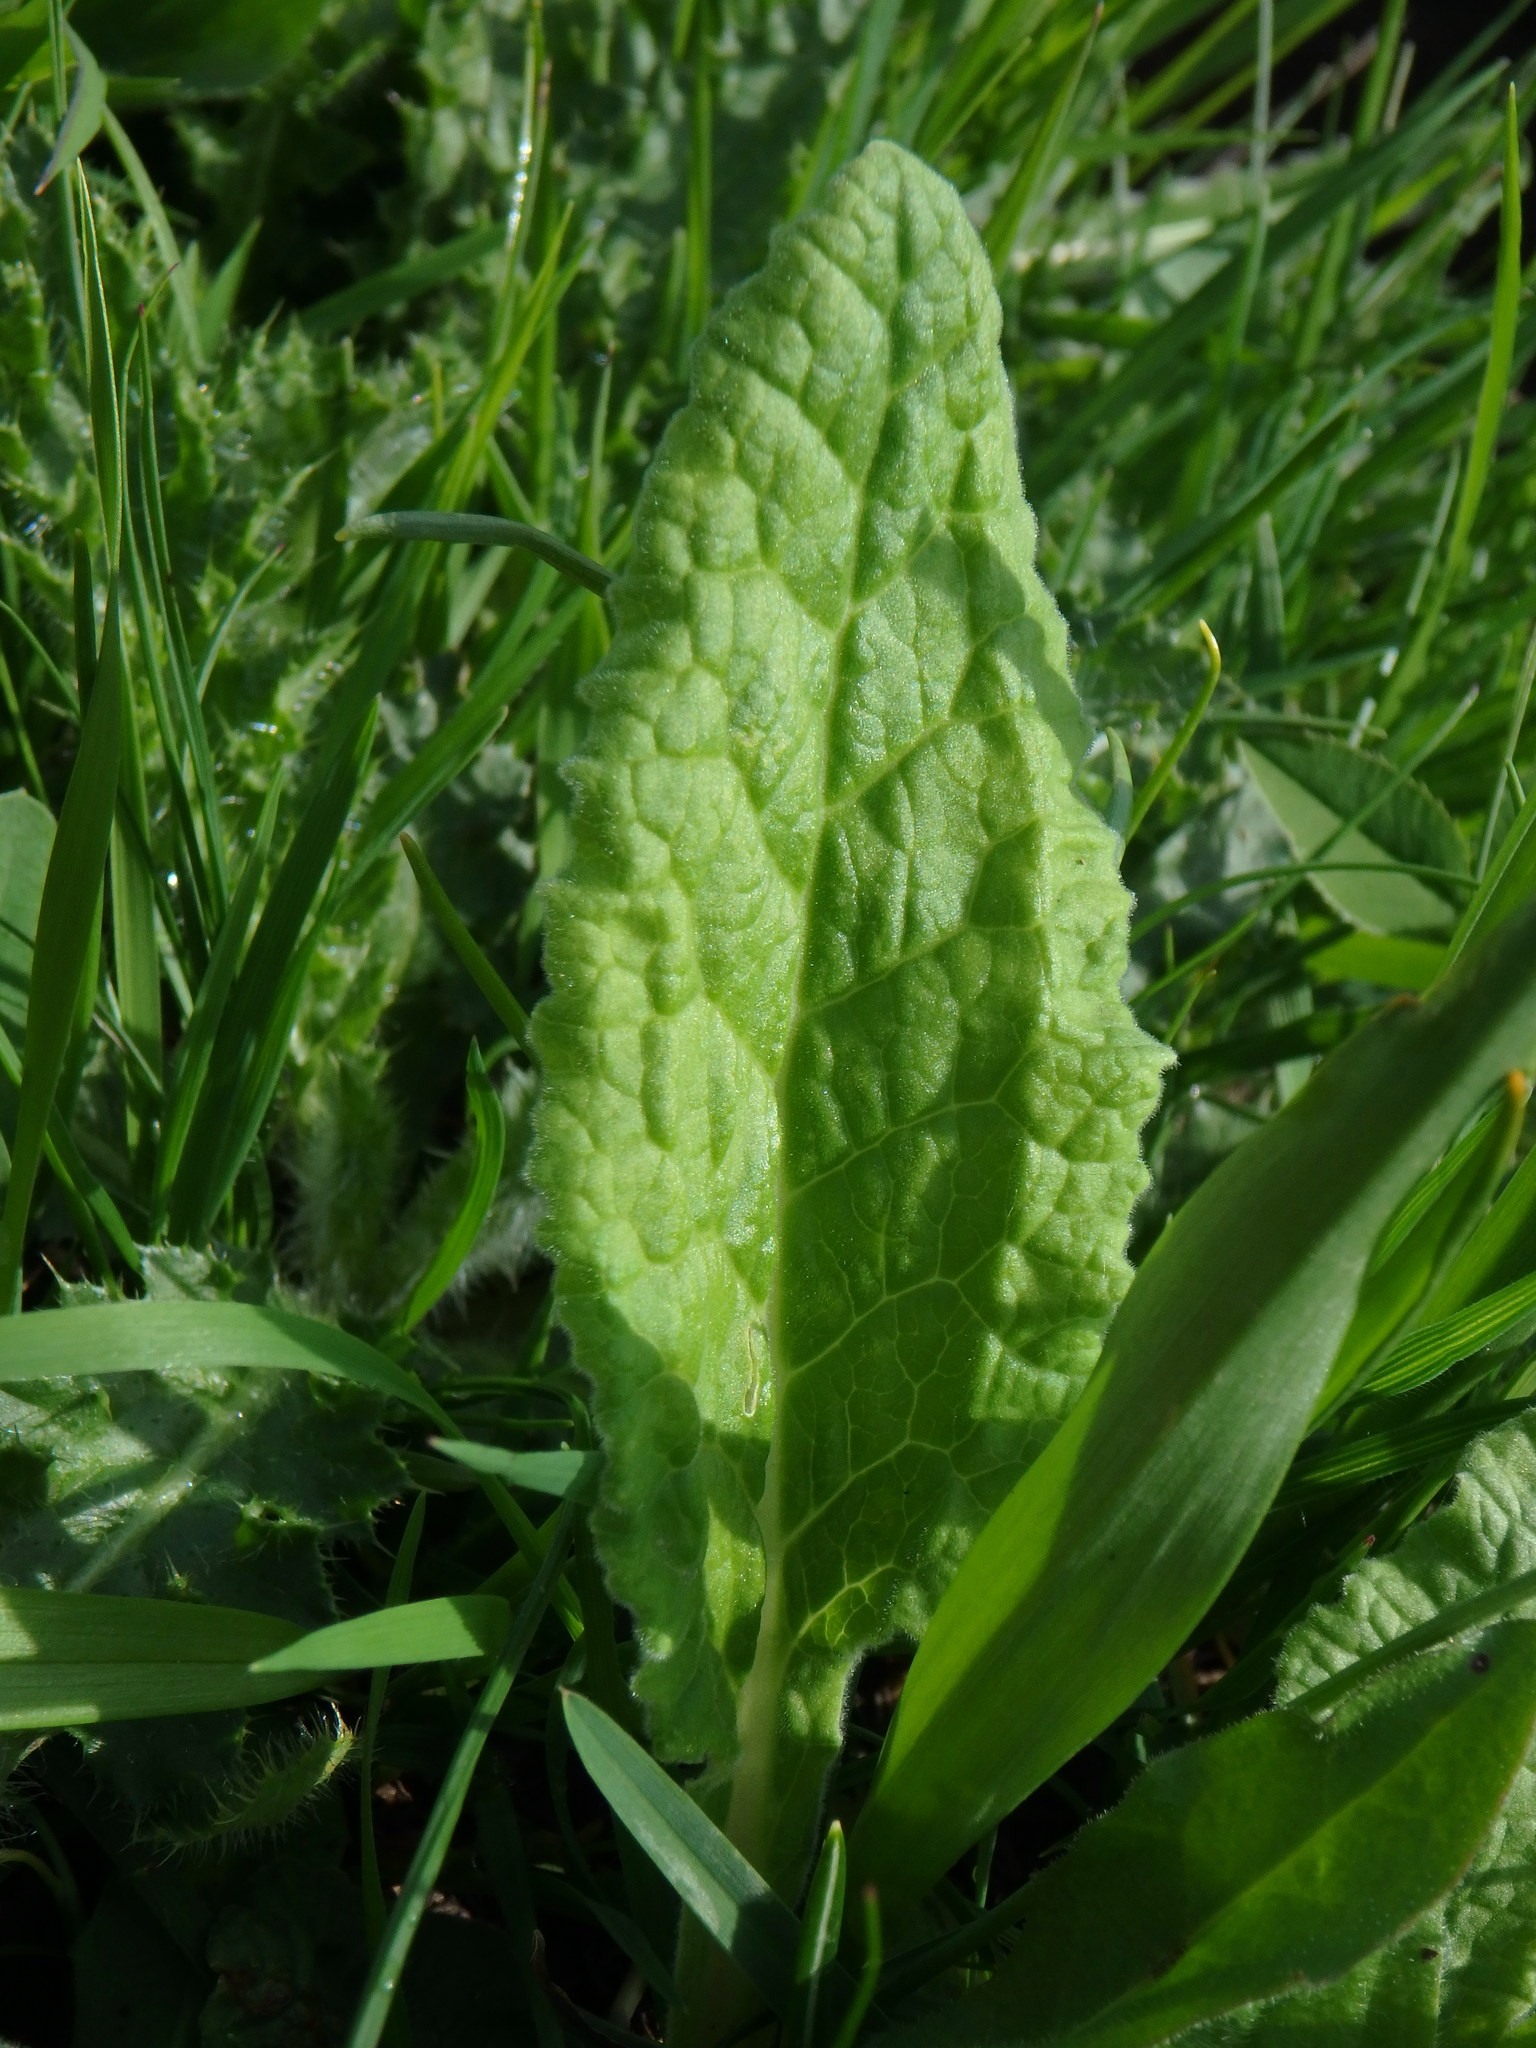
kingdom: Plantae
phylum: Tracheophyta
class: Magnoliopsida
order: Ericales
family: Primulaceae
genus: Primula
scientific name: Primula veris
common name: Cowslip
